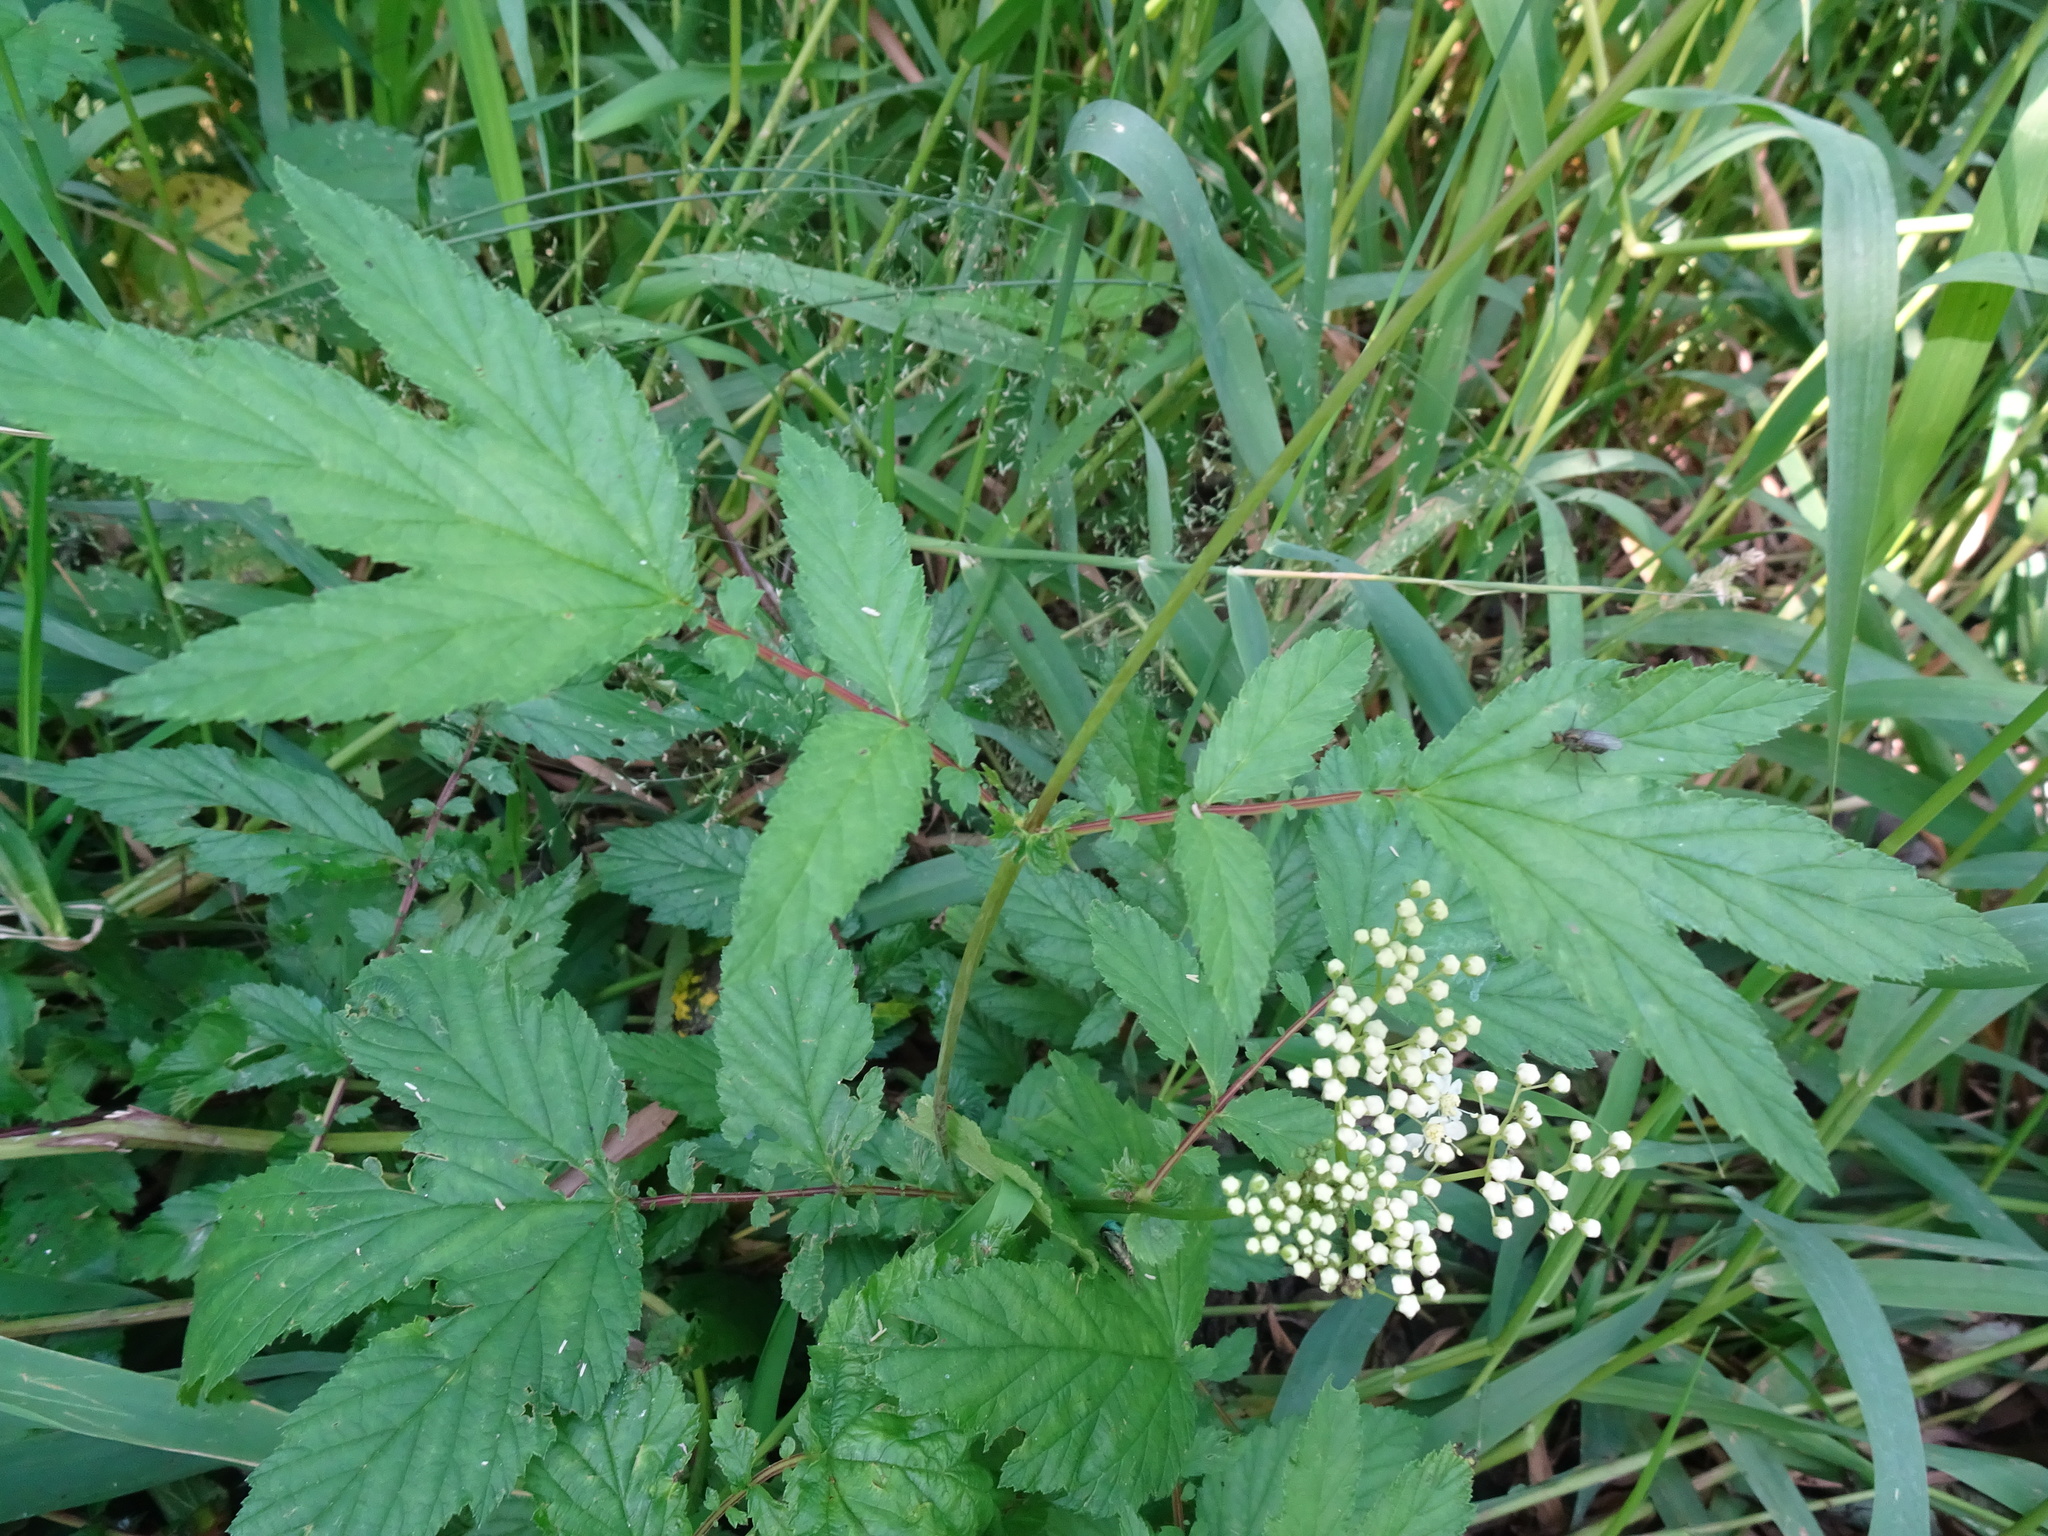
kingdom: Plantae
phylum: Tracheophyta
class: Magnoliopsida
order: Rosales
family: Rosaceae
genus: Filipendula
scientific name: Filipendula ulmaria
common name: Meadowsweet
